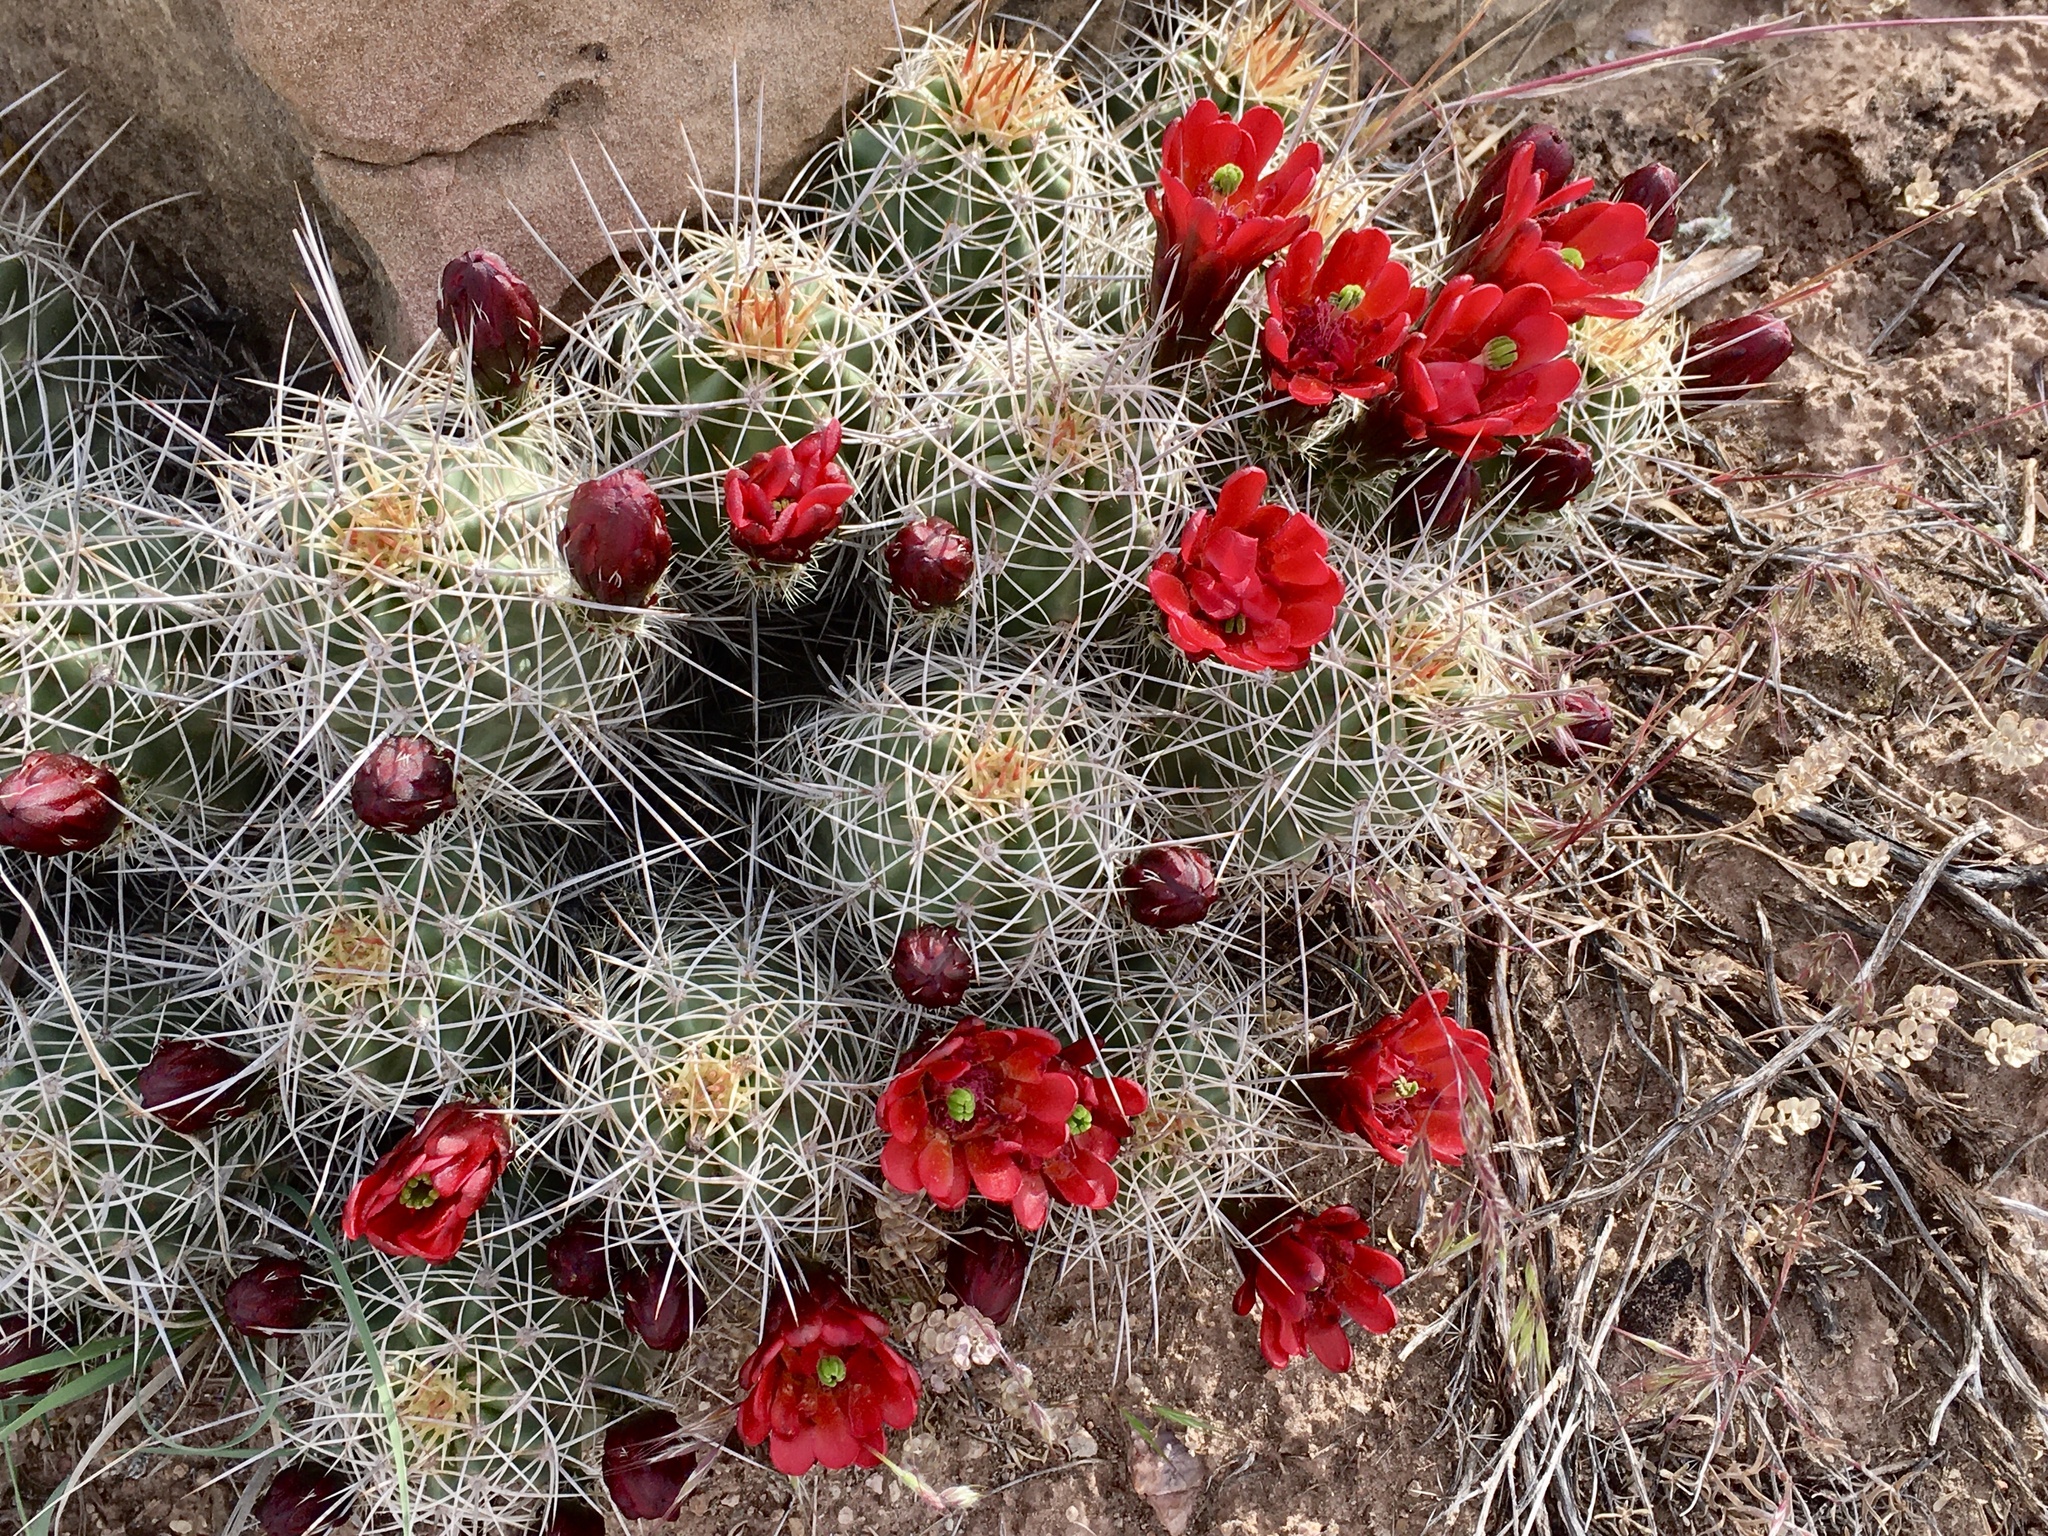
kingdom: Plantae
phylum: Tracheophyta
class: Magnoliopsida
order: Caryophyllales
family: Cactaceae
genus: Echinocereus
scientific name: Echinocereus triglochidiatus
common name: Claretcup hedgehog
